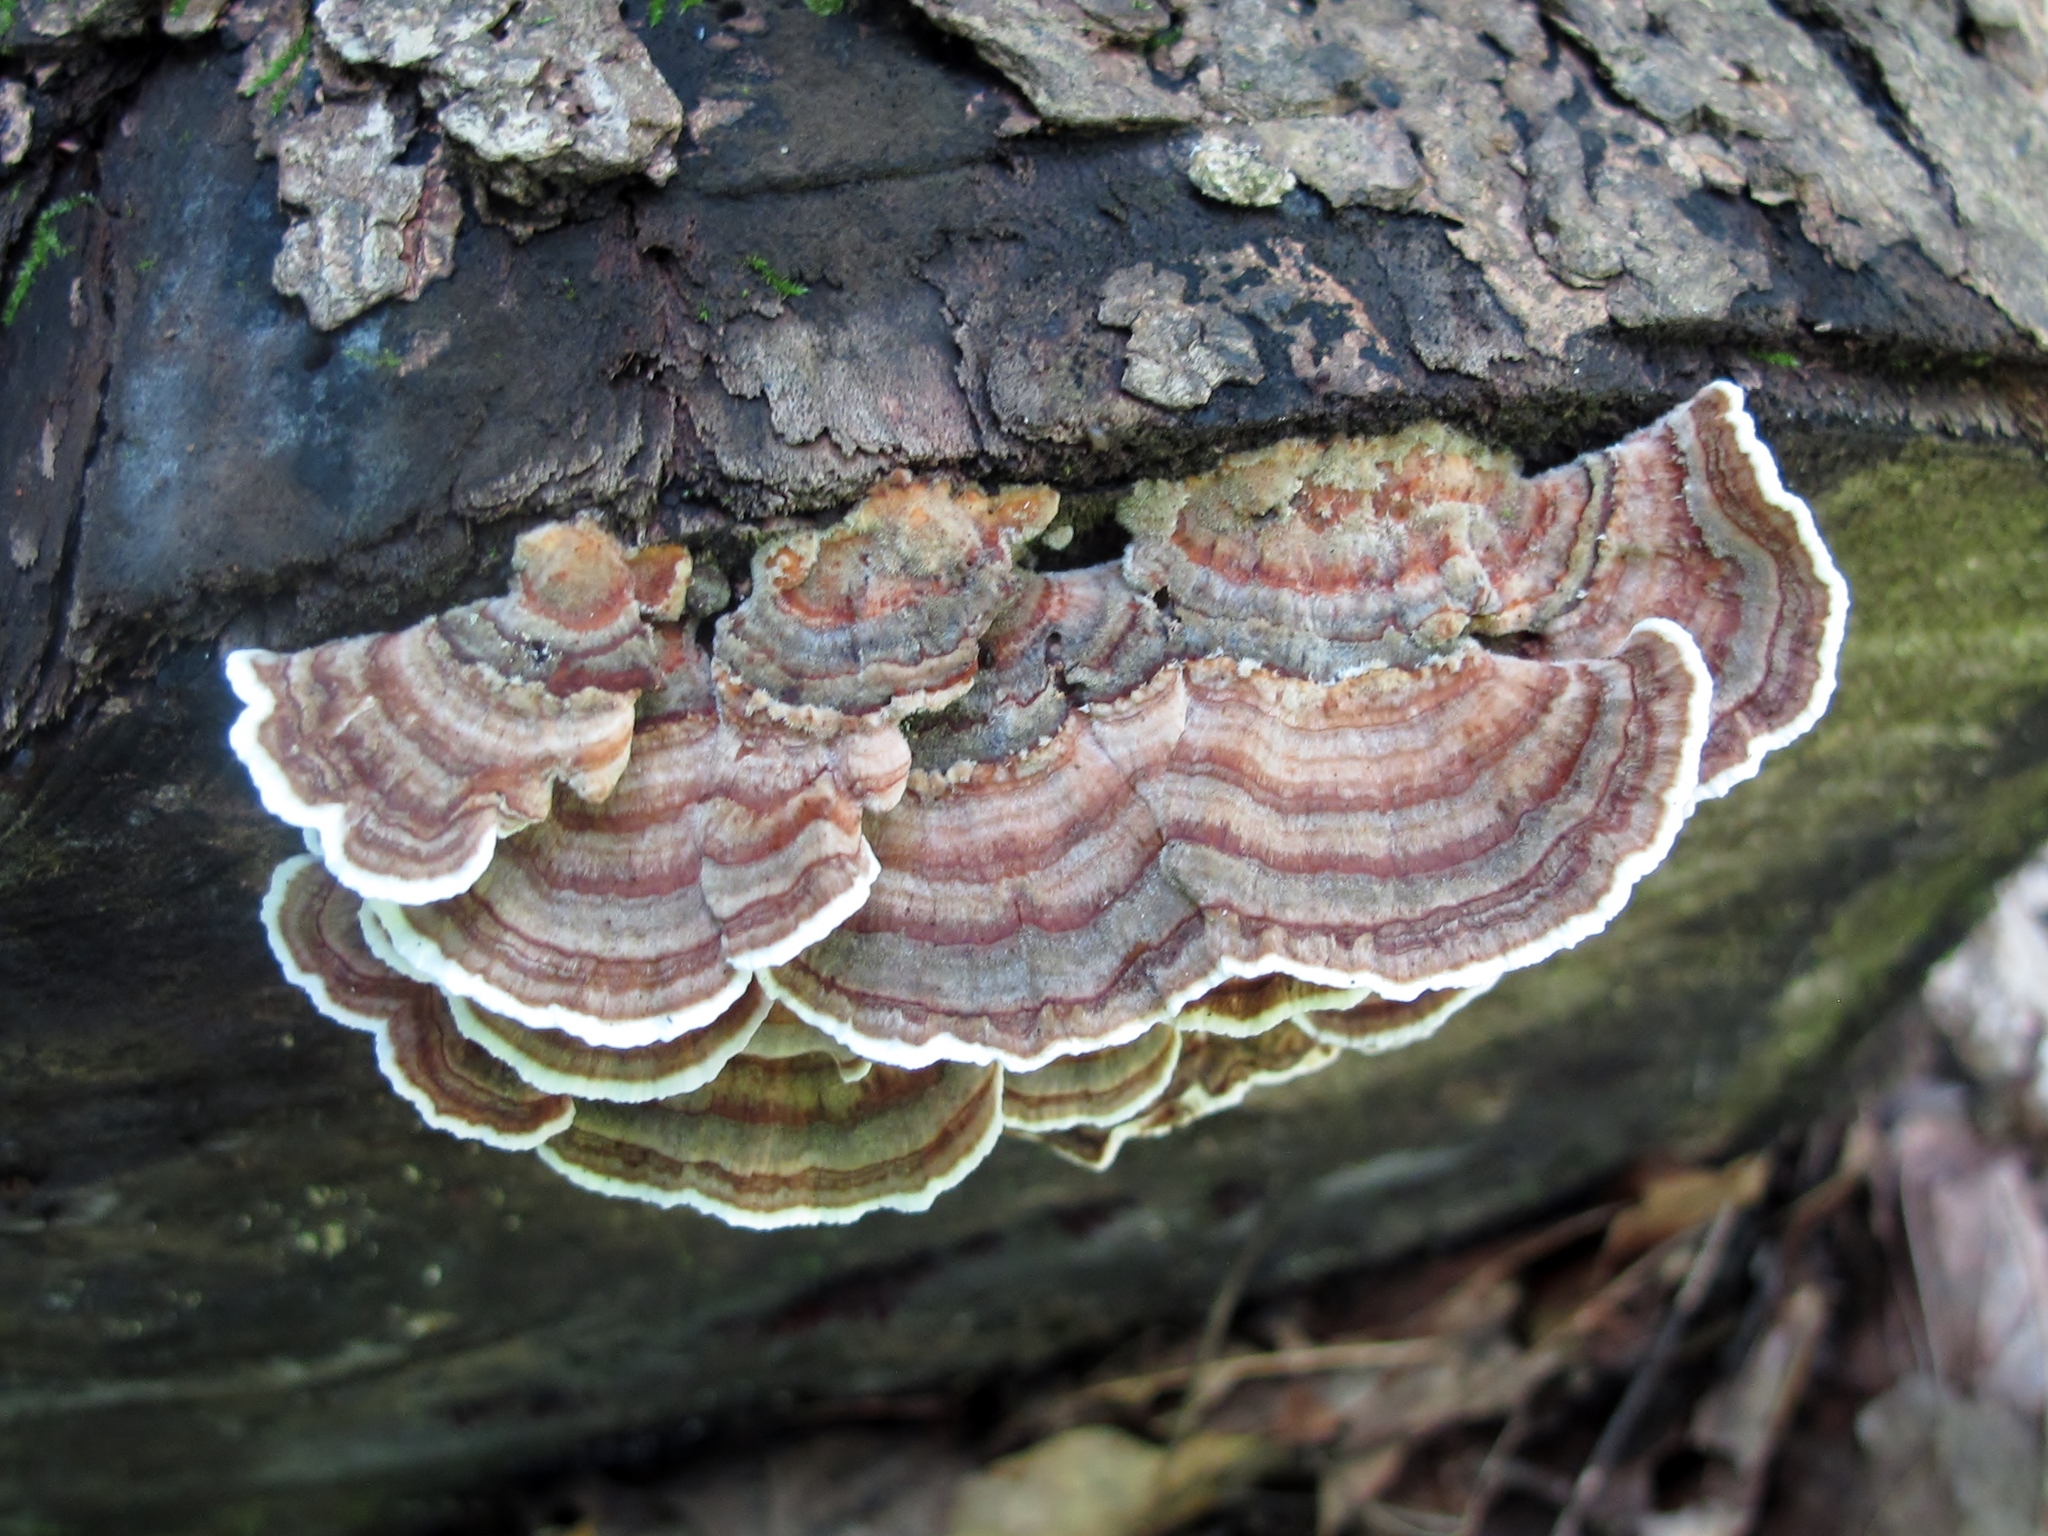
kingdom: Fungi
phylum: Basidiomycota
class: Agaricomycetes
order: Polyporales
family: Polyporaceae
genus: Trametes
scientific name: Trametes versicolor
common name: Turkeytail
